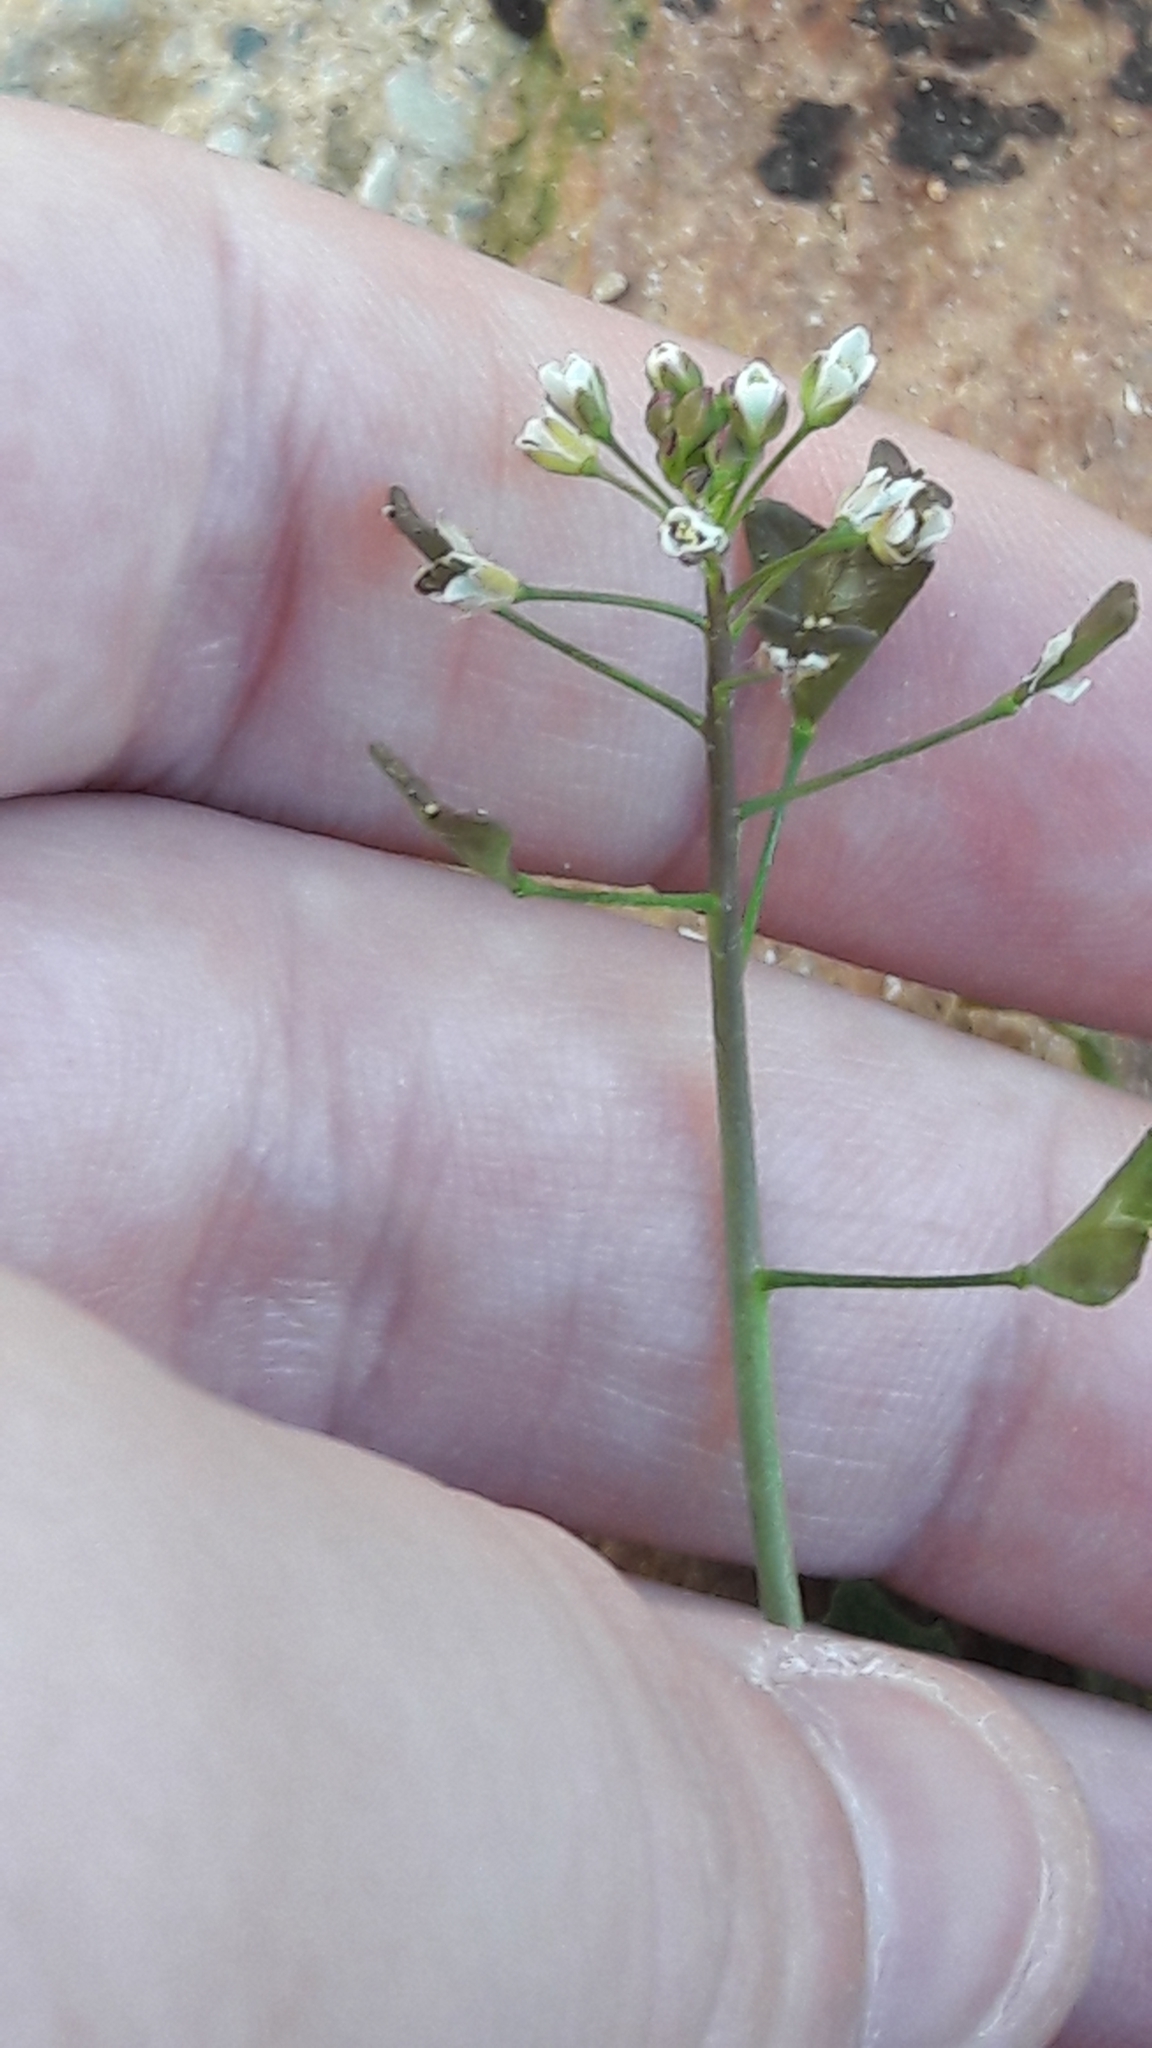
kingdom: Plantae
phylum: Tracheophyta
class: Magnoliopsida
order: Brassicales
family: Brassicaceae
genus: Capsella
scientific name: Capsella bursa-pastoris
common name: Shepherd's purse
